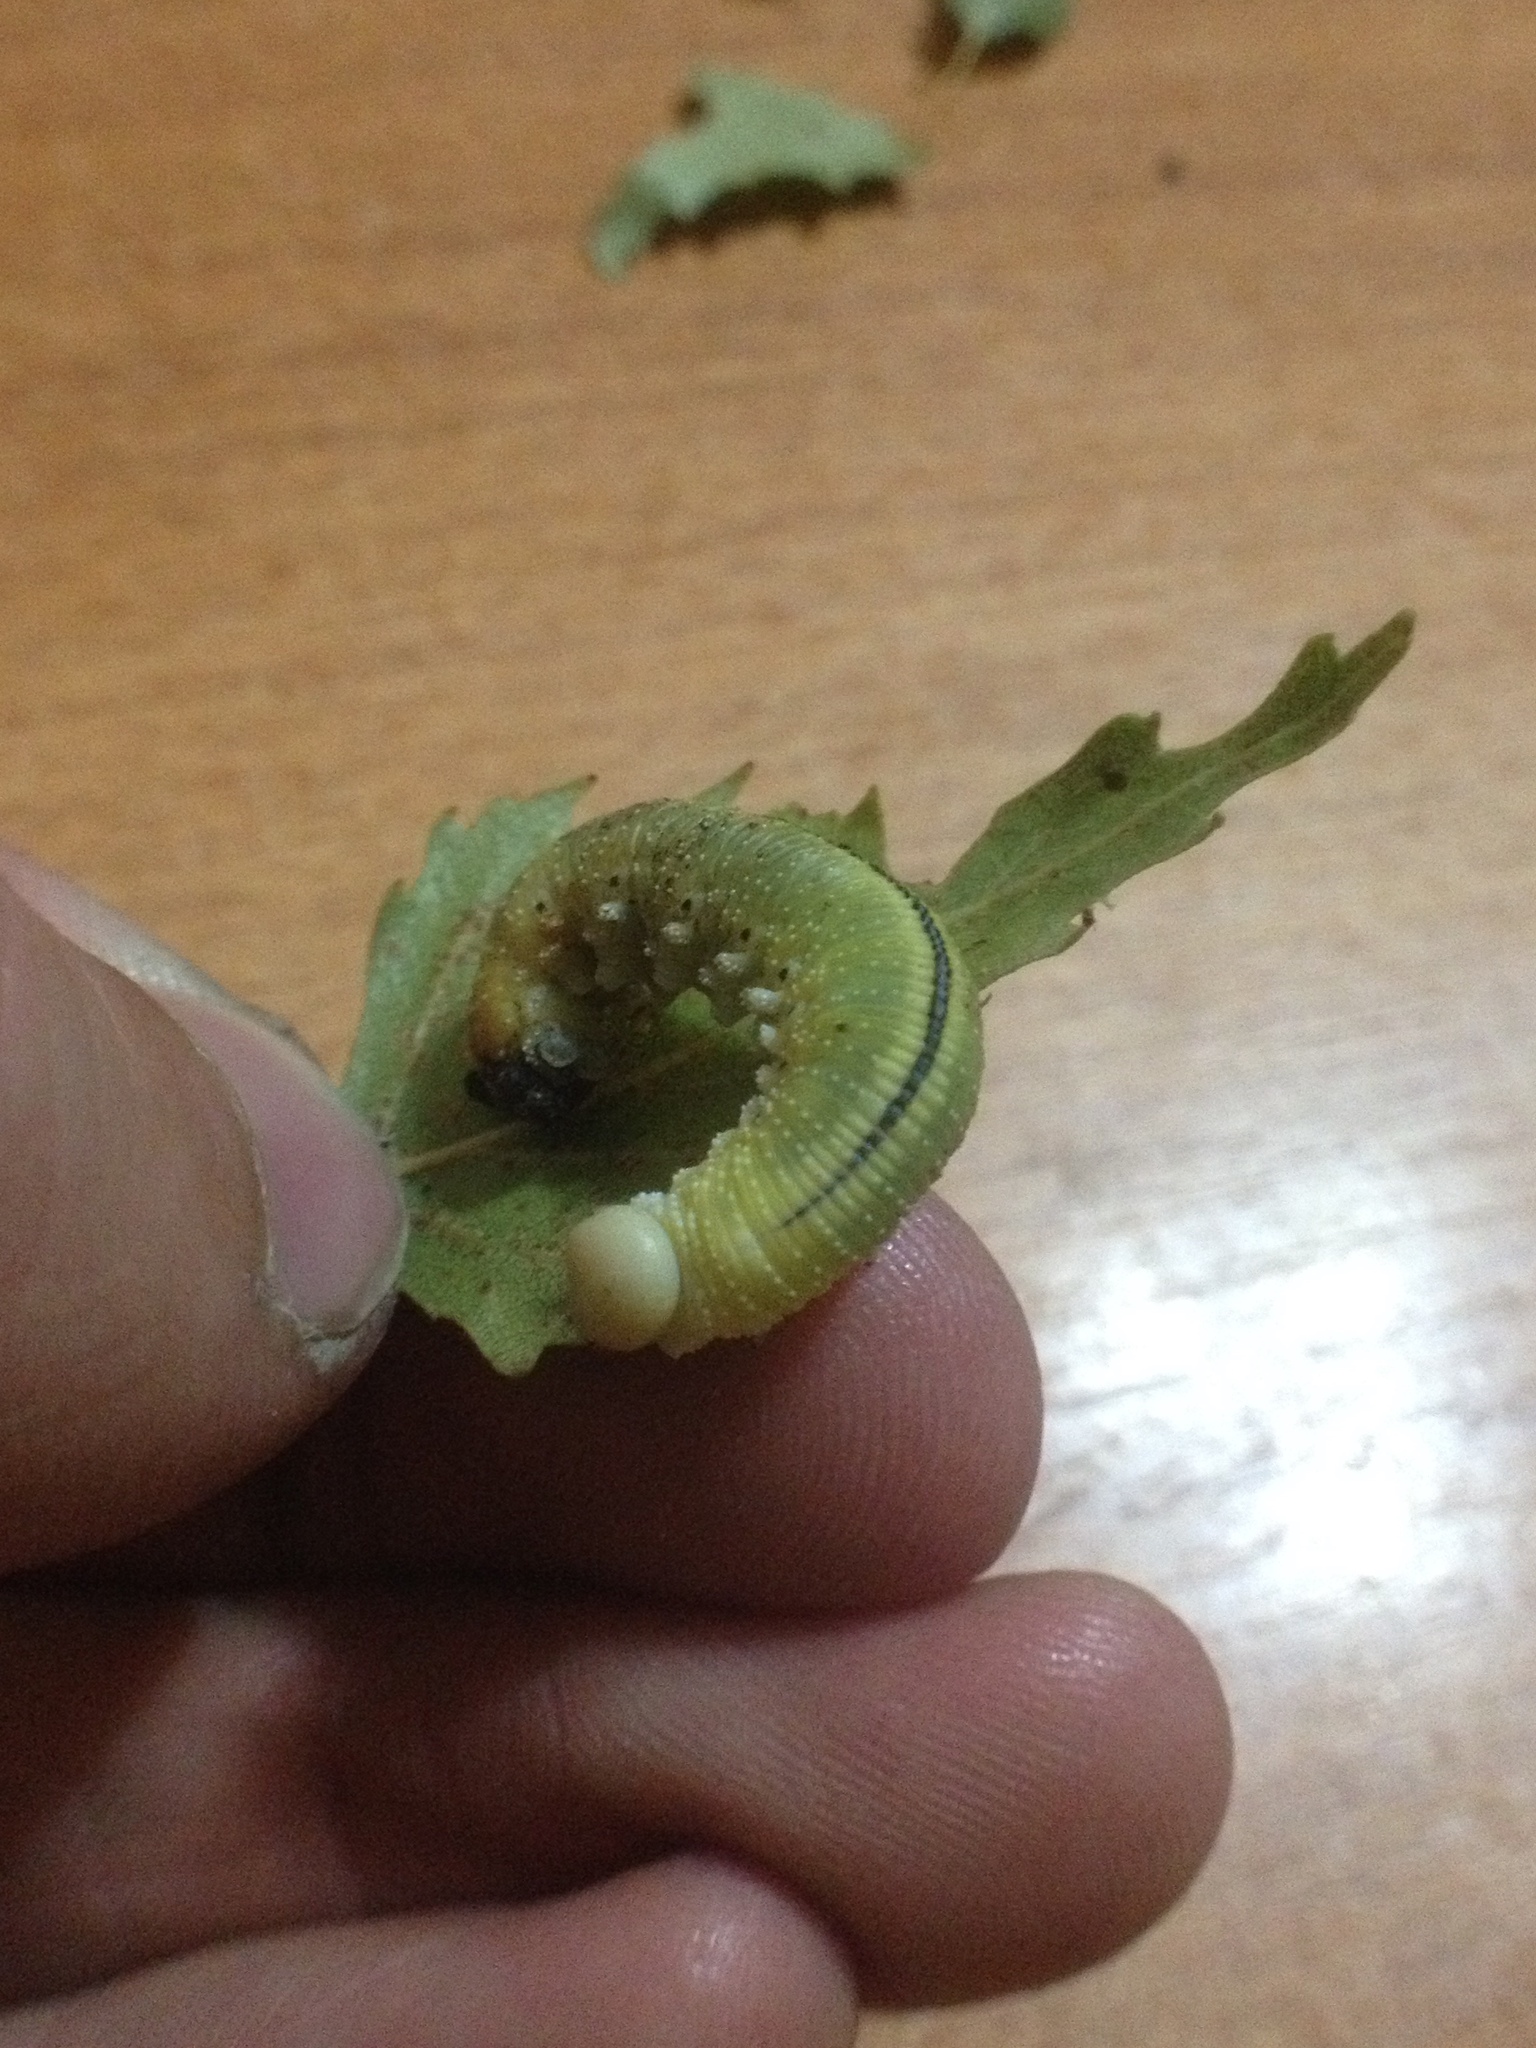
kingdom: Animalia
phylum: Arthropoda
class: Insecta
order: Hymenoptera
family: Cimbicidae
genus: Cimbex
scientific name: Cimbex femoratus
